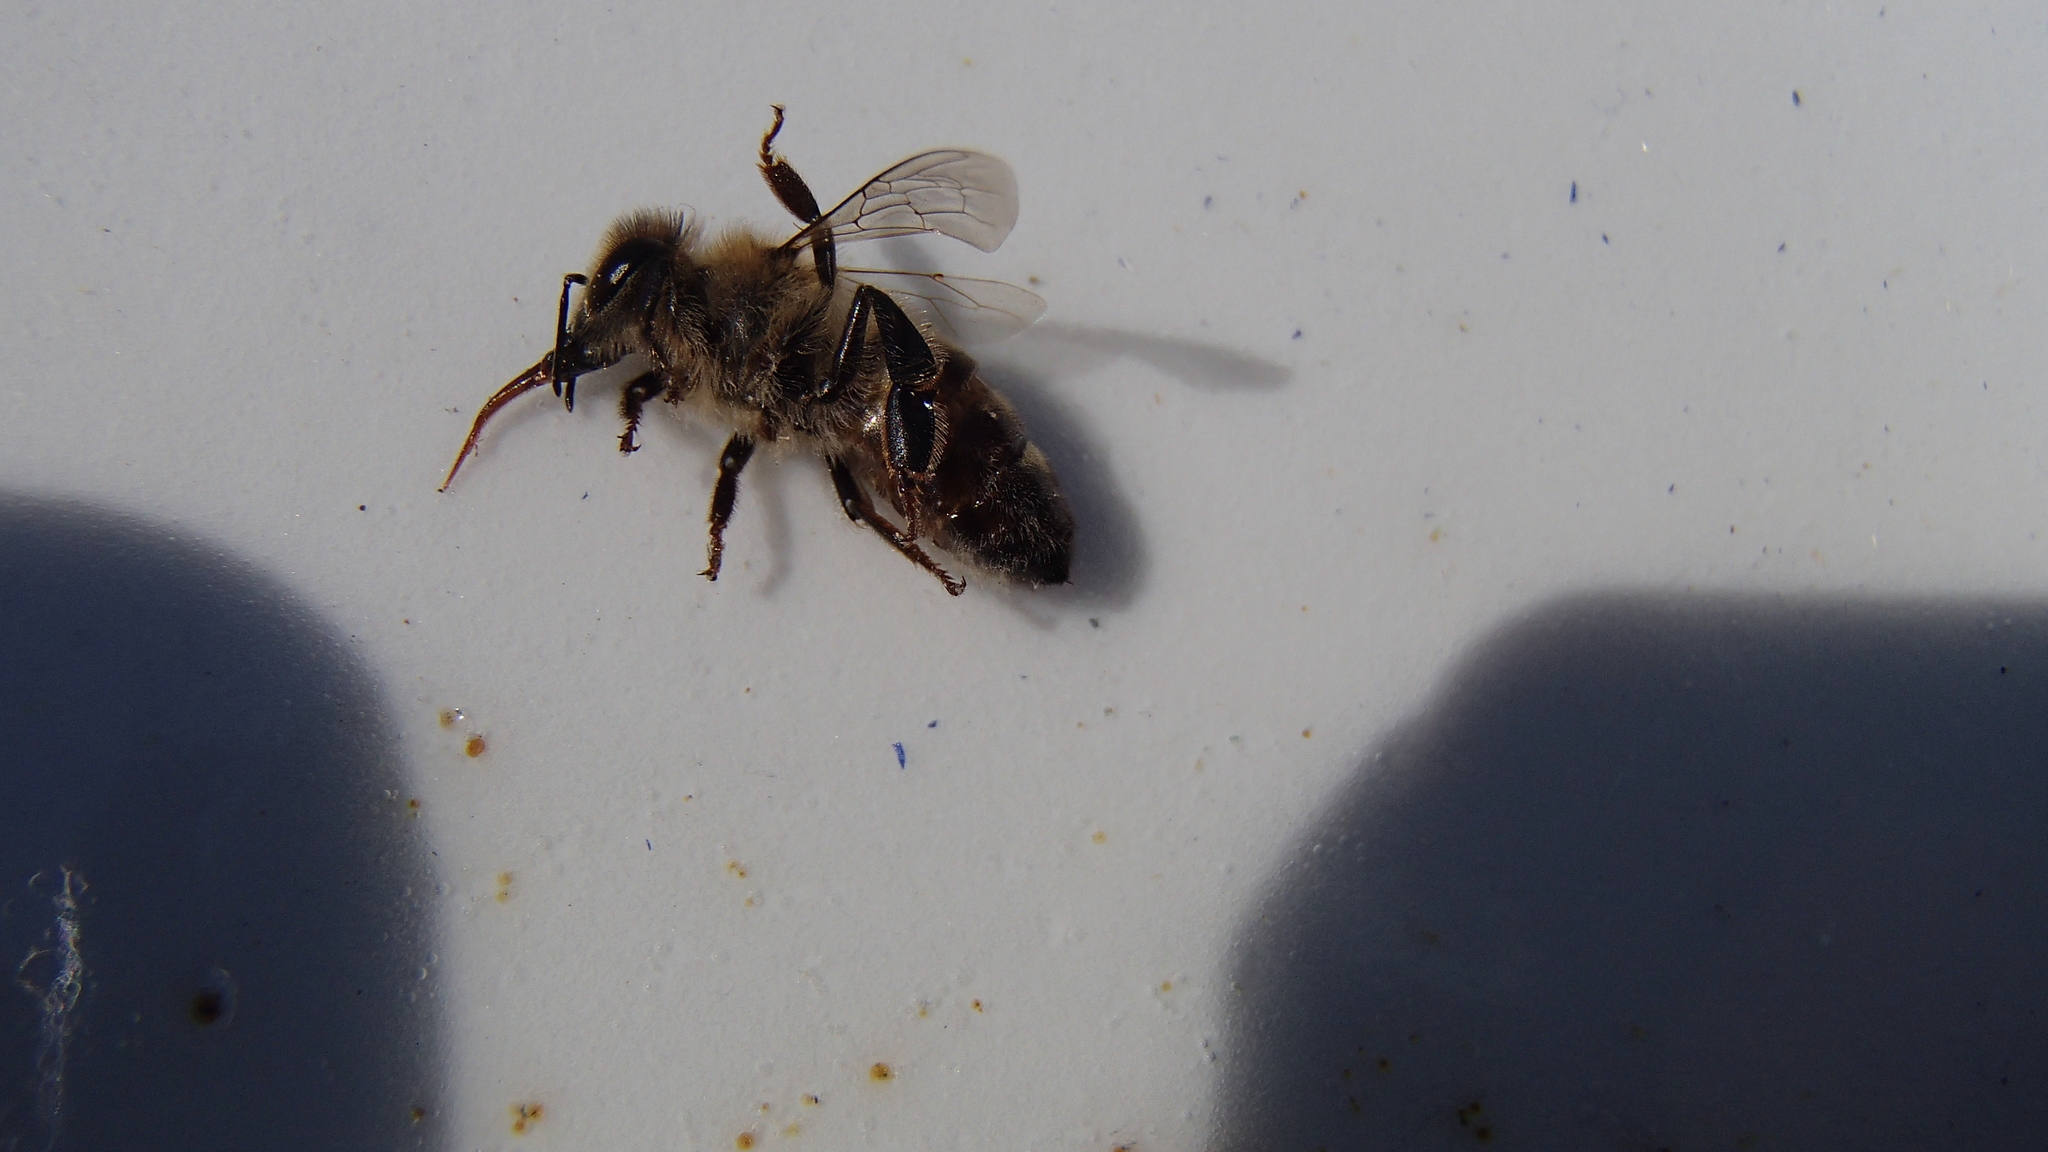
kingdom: Animalia
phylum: Arthropoda
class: Insecta
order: Hymenoptera
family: Apidae
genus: Apis
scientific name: Apis mellifera
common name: Honey bee
